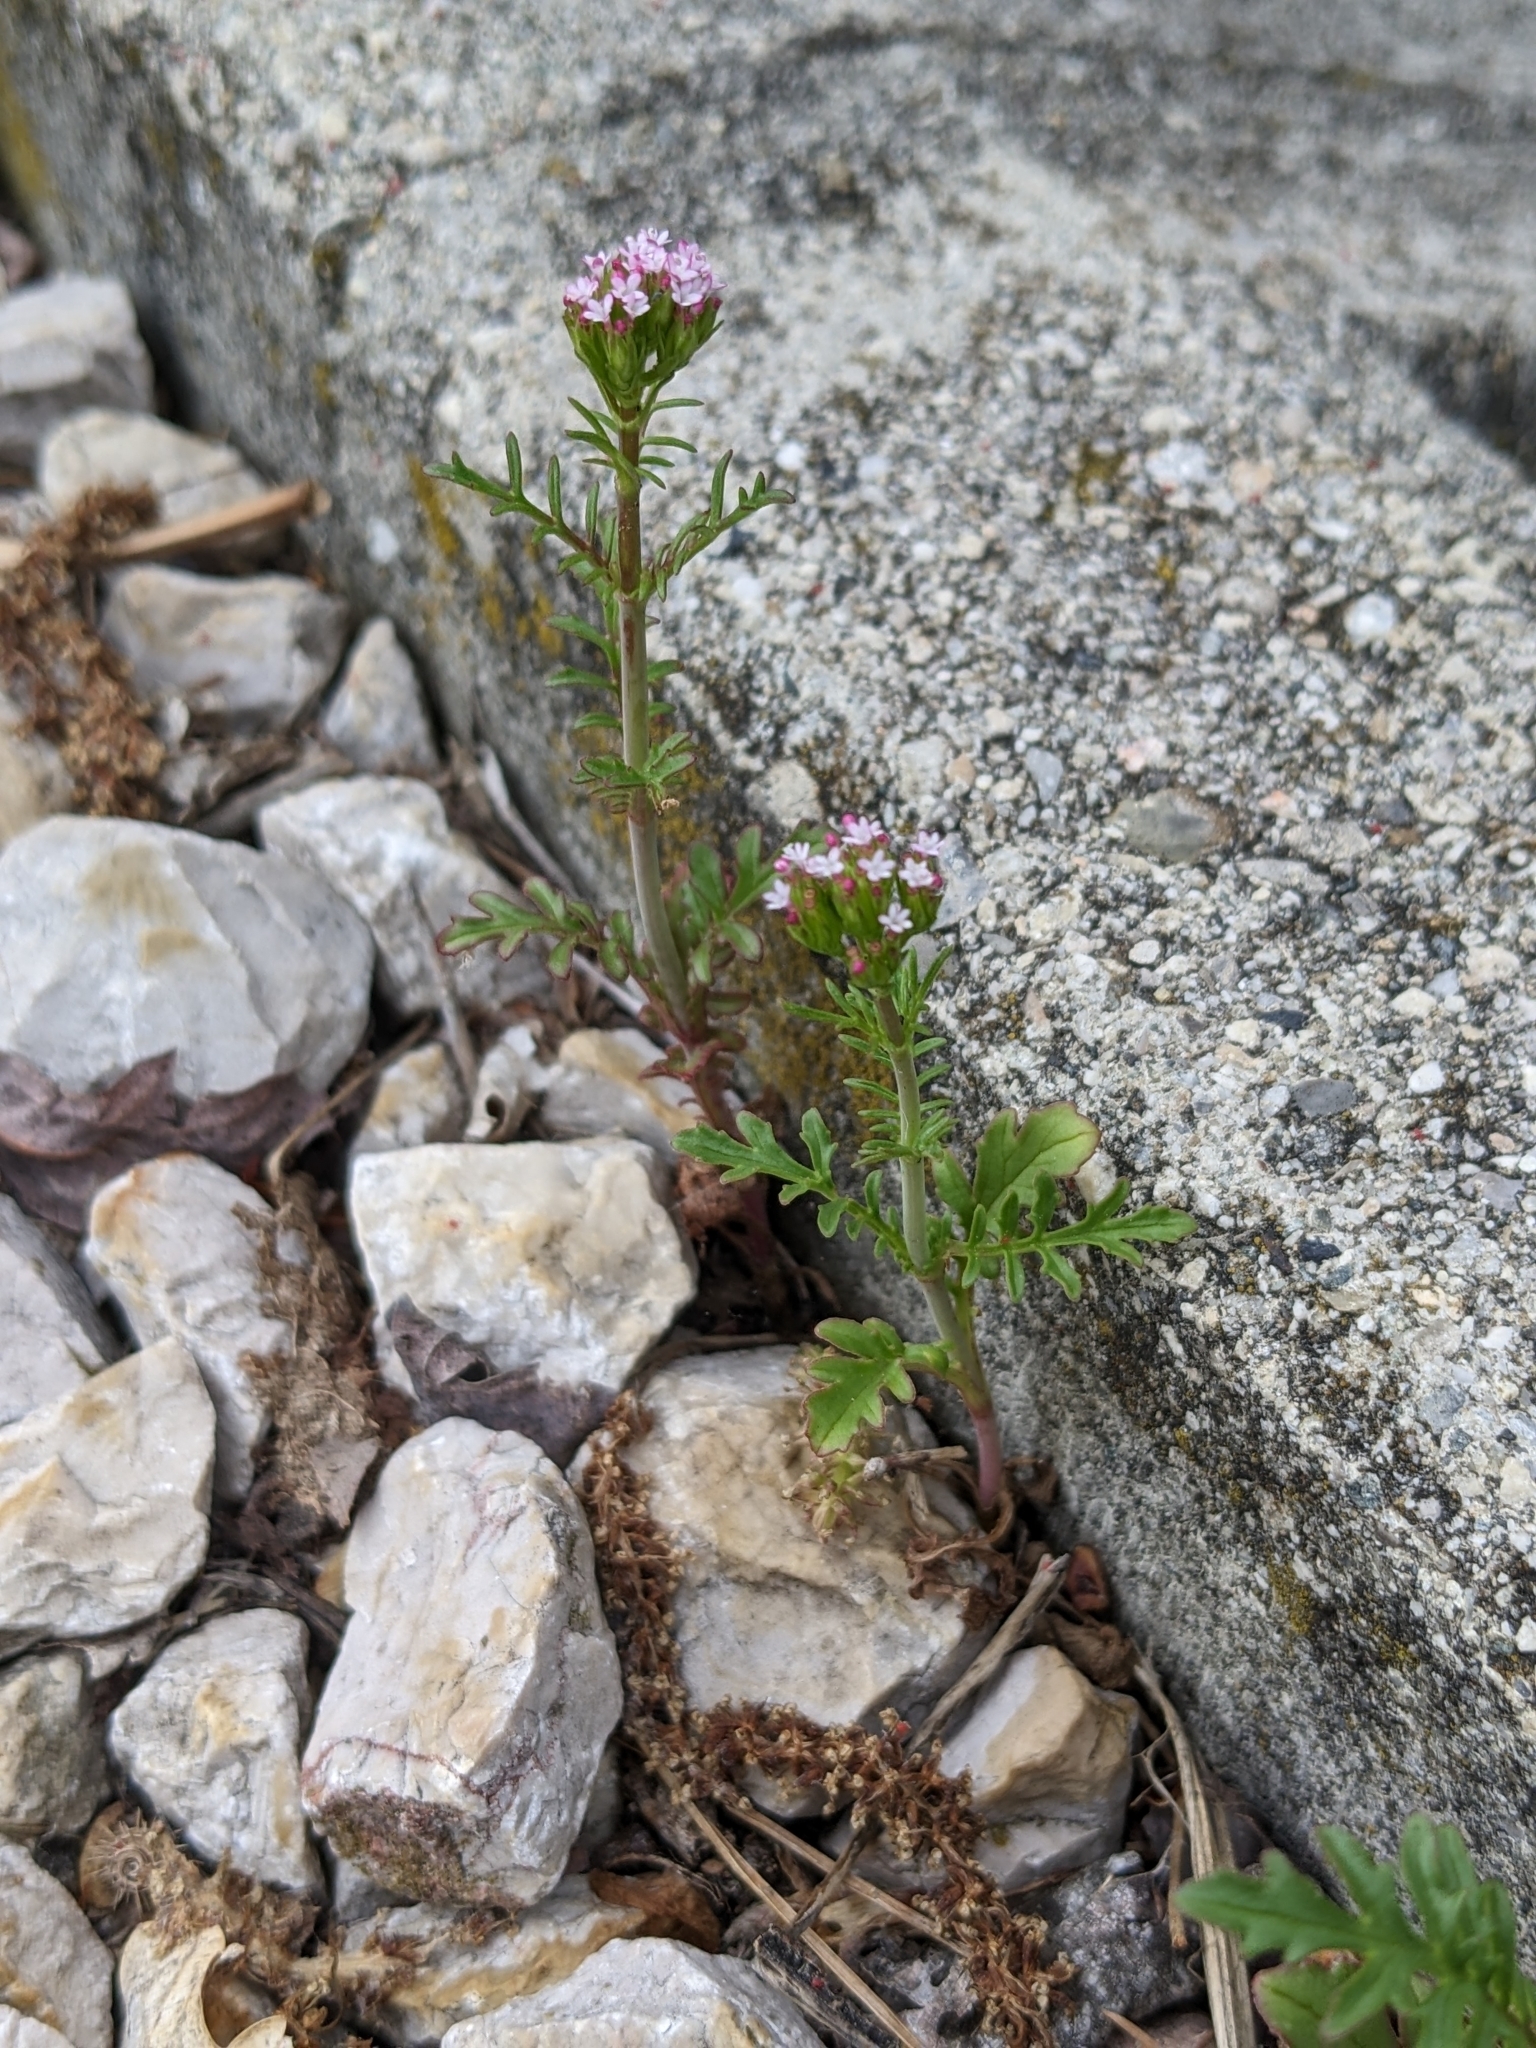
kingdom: Plantae
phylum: Tracheophyta
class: Magnoliopsida
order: Dipsacales
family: Caprifoliaceae
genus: Centranthus
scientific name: Centranthus calcitrapae
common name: Annual valerian
